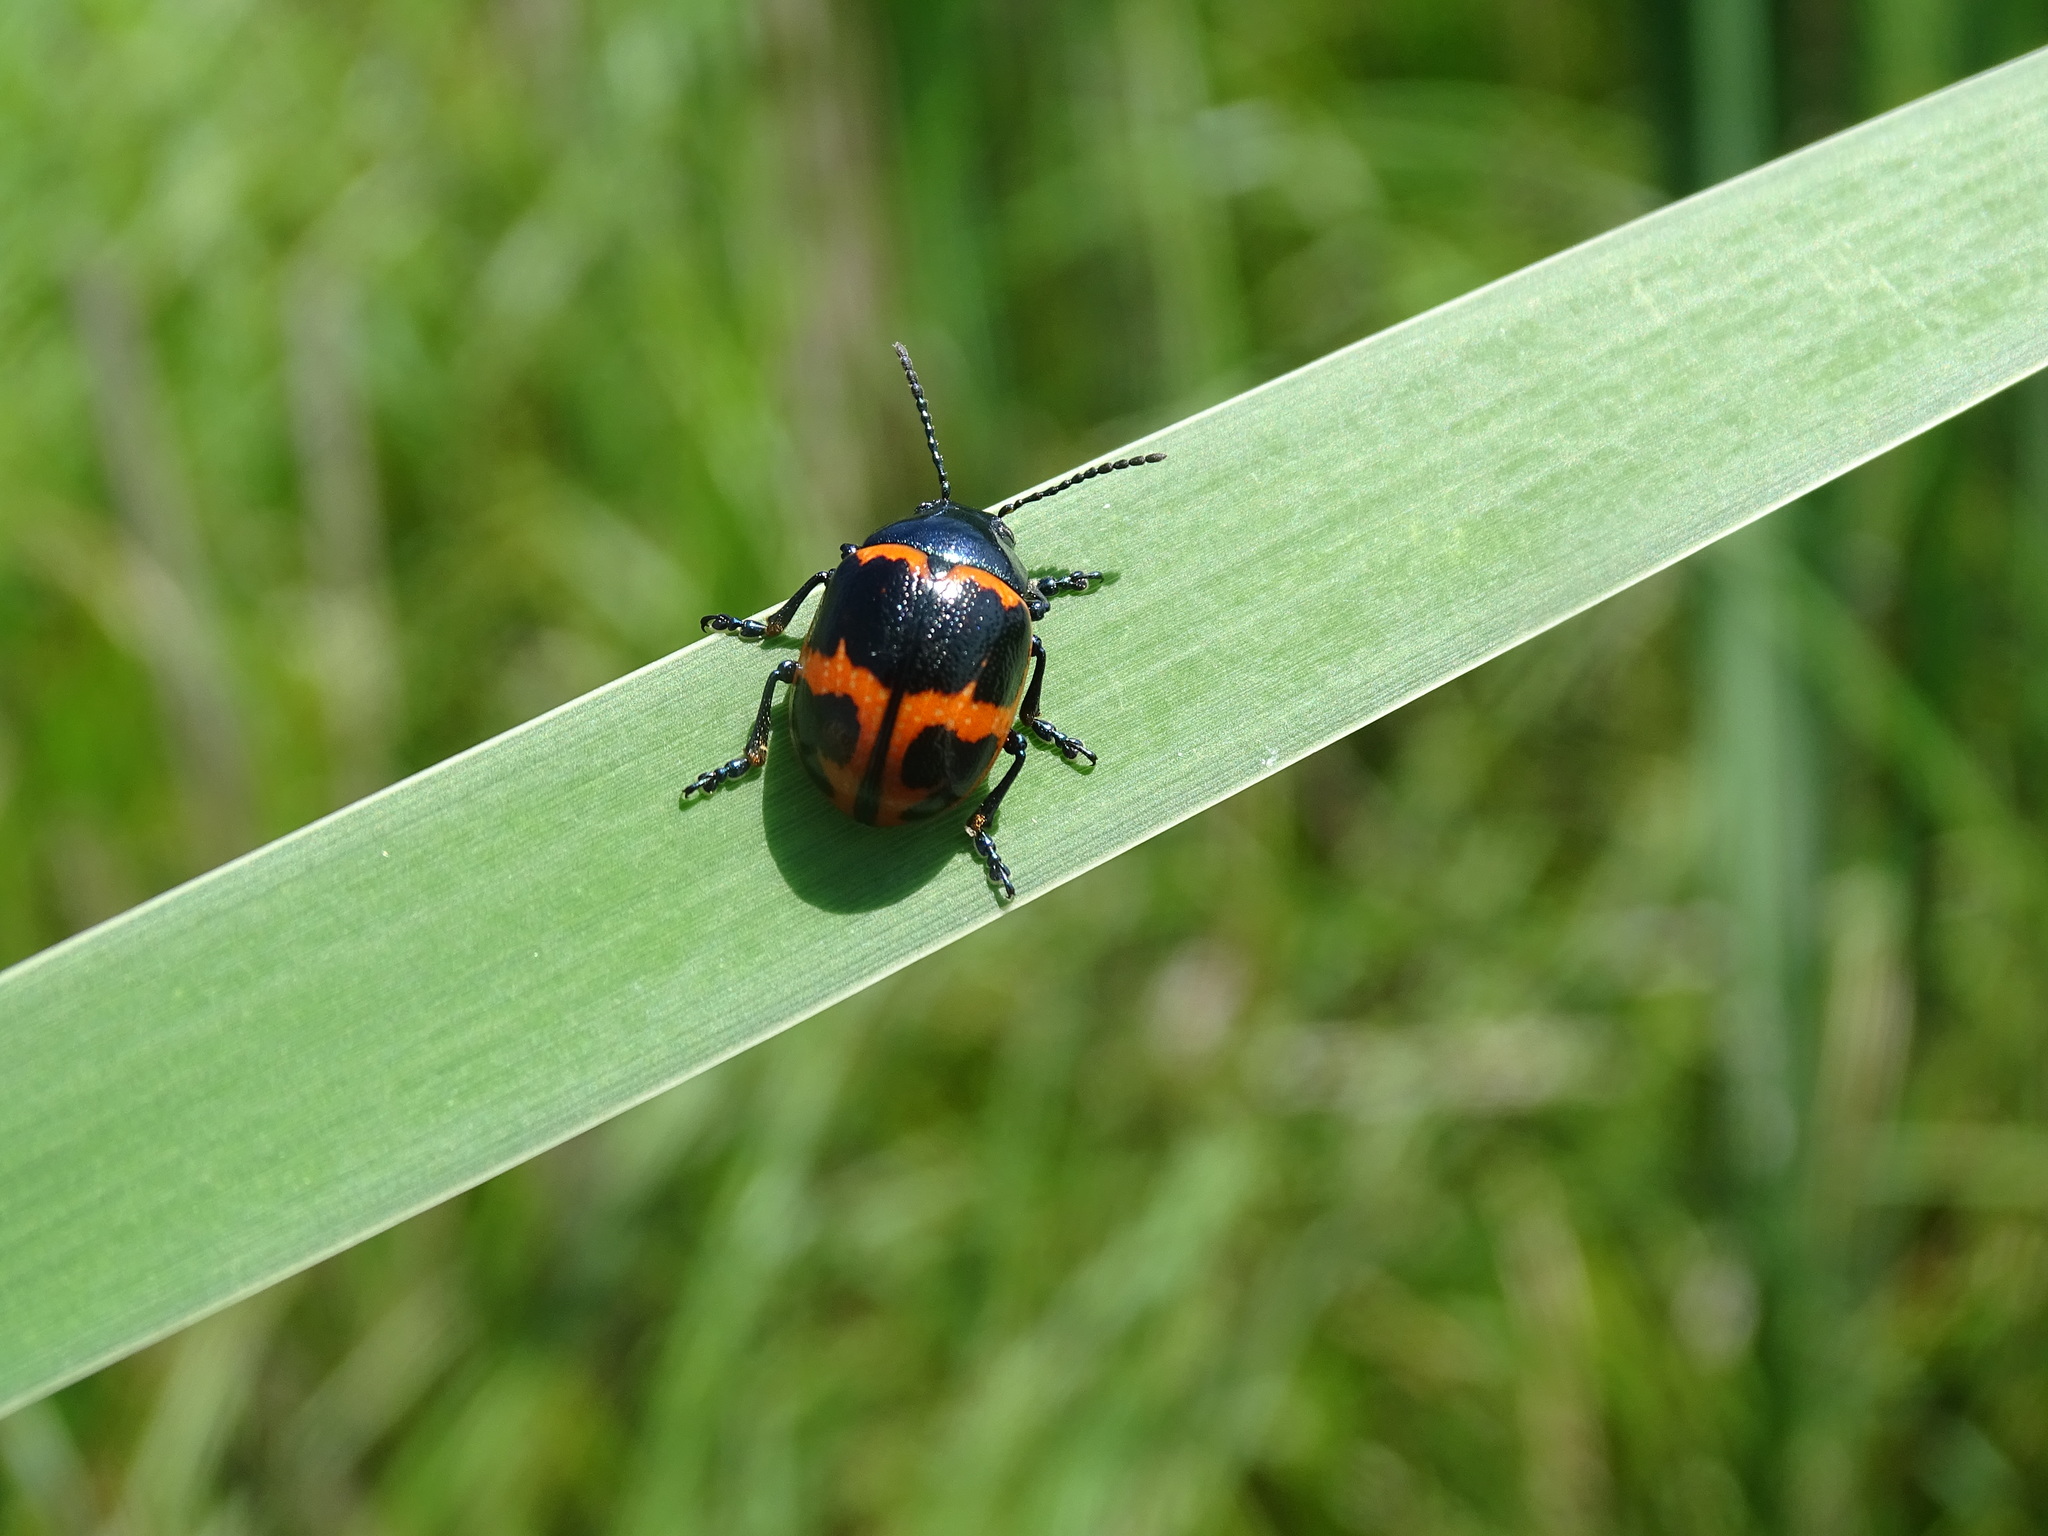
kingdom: Animalia
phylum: Arthropoda
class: Insecta
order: Coleoptera
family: Chrysomelidae
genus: Labidomera
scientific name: Labidomera clivicollis
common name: Swamp milkweed leaf beetle
